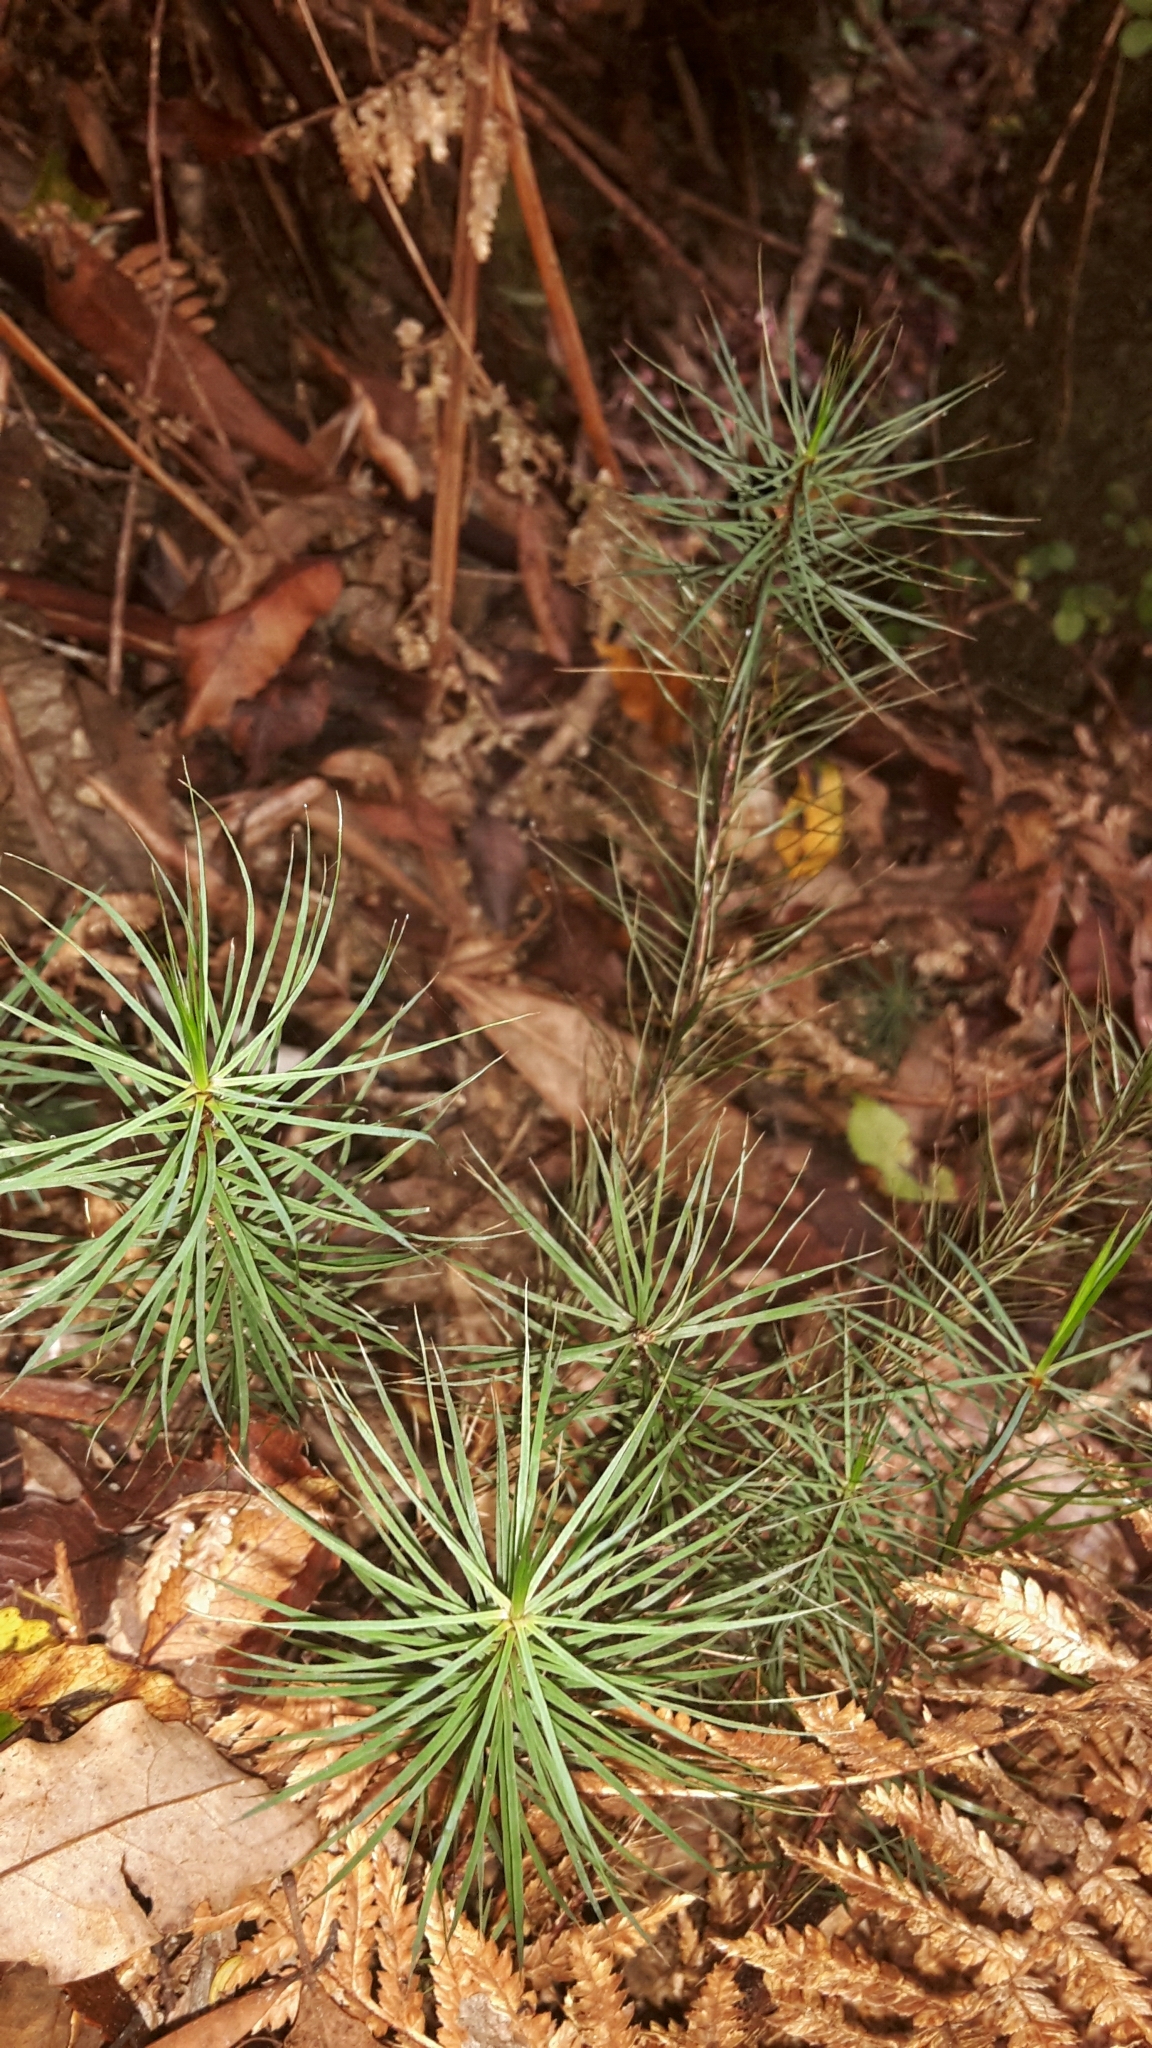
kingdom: Plantae
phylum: Bryophyta
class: Polytrichopsida
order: Polytrichales
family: Polytrichaceae
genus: Dawsonia
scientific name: Dawsonia superba
